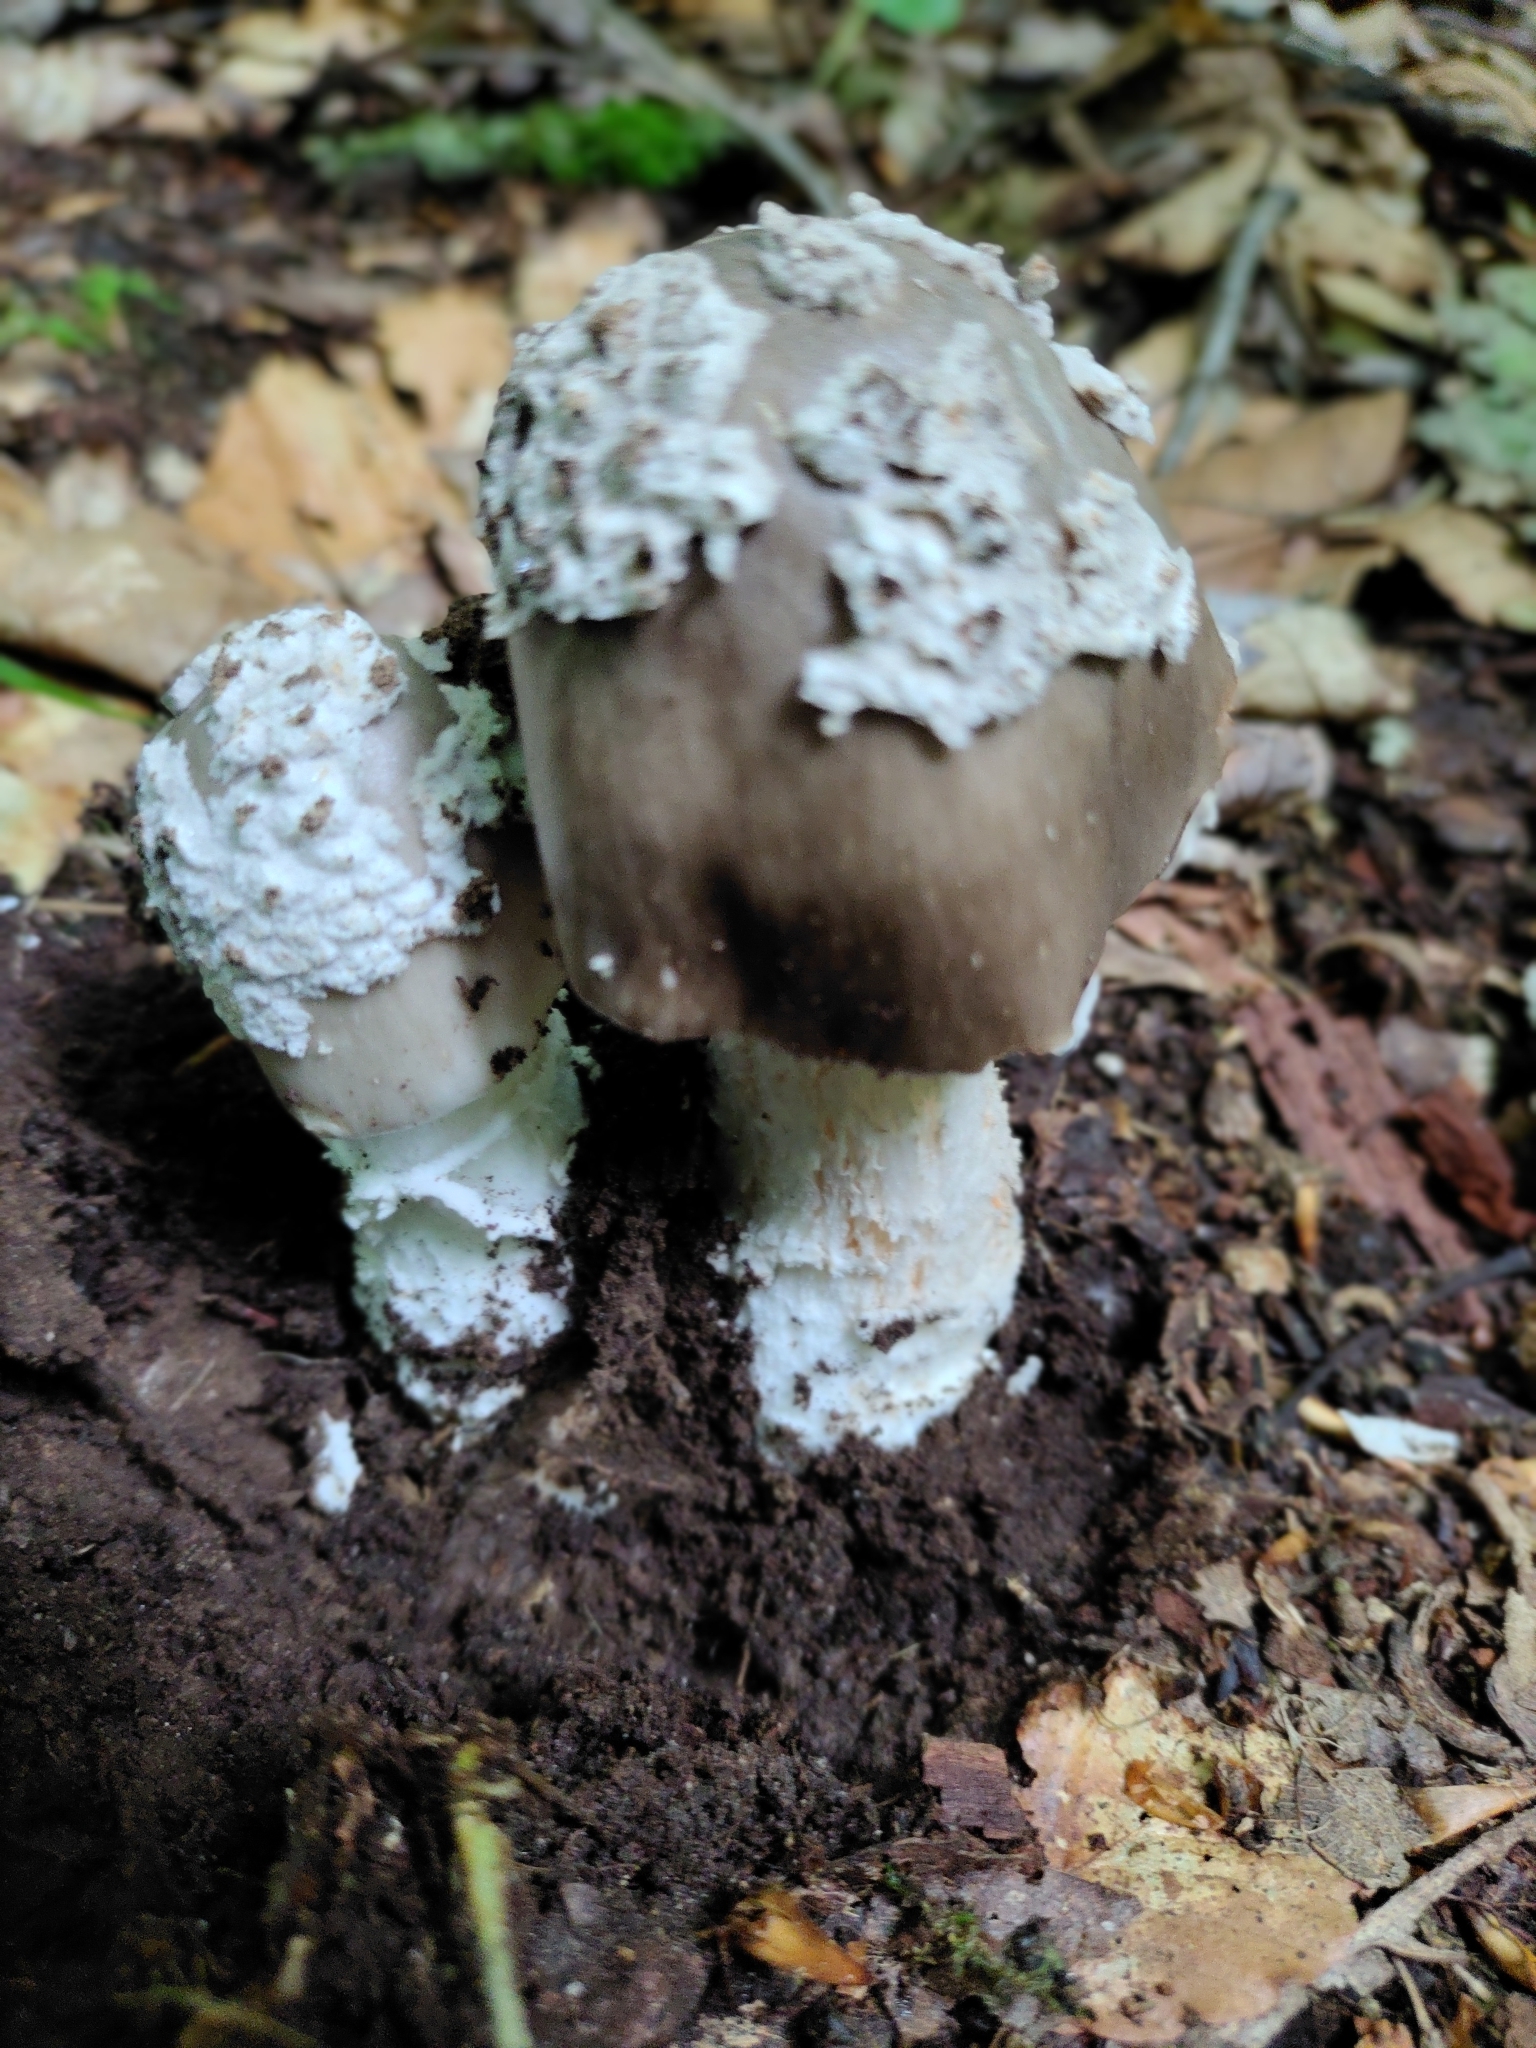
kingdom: Fungi
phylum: Basidiomycota
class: Agaricomycetes
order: Agaricales
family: Amanitaceae
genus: Amanita
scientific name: Amanita submaculata
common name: Ball gown amanita
